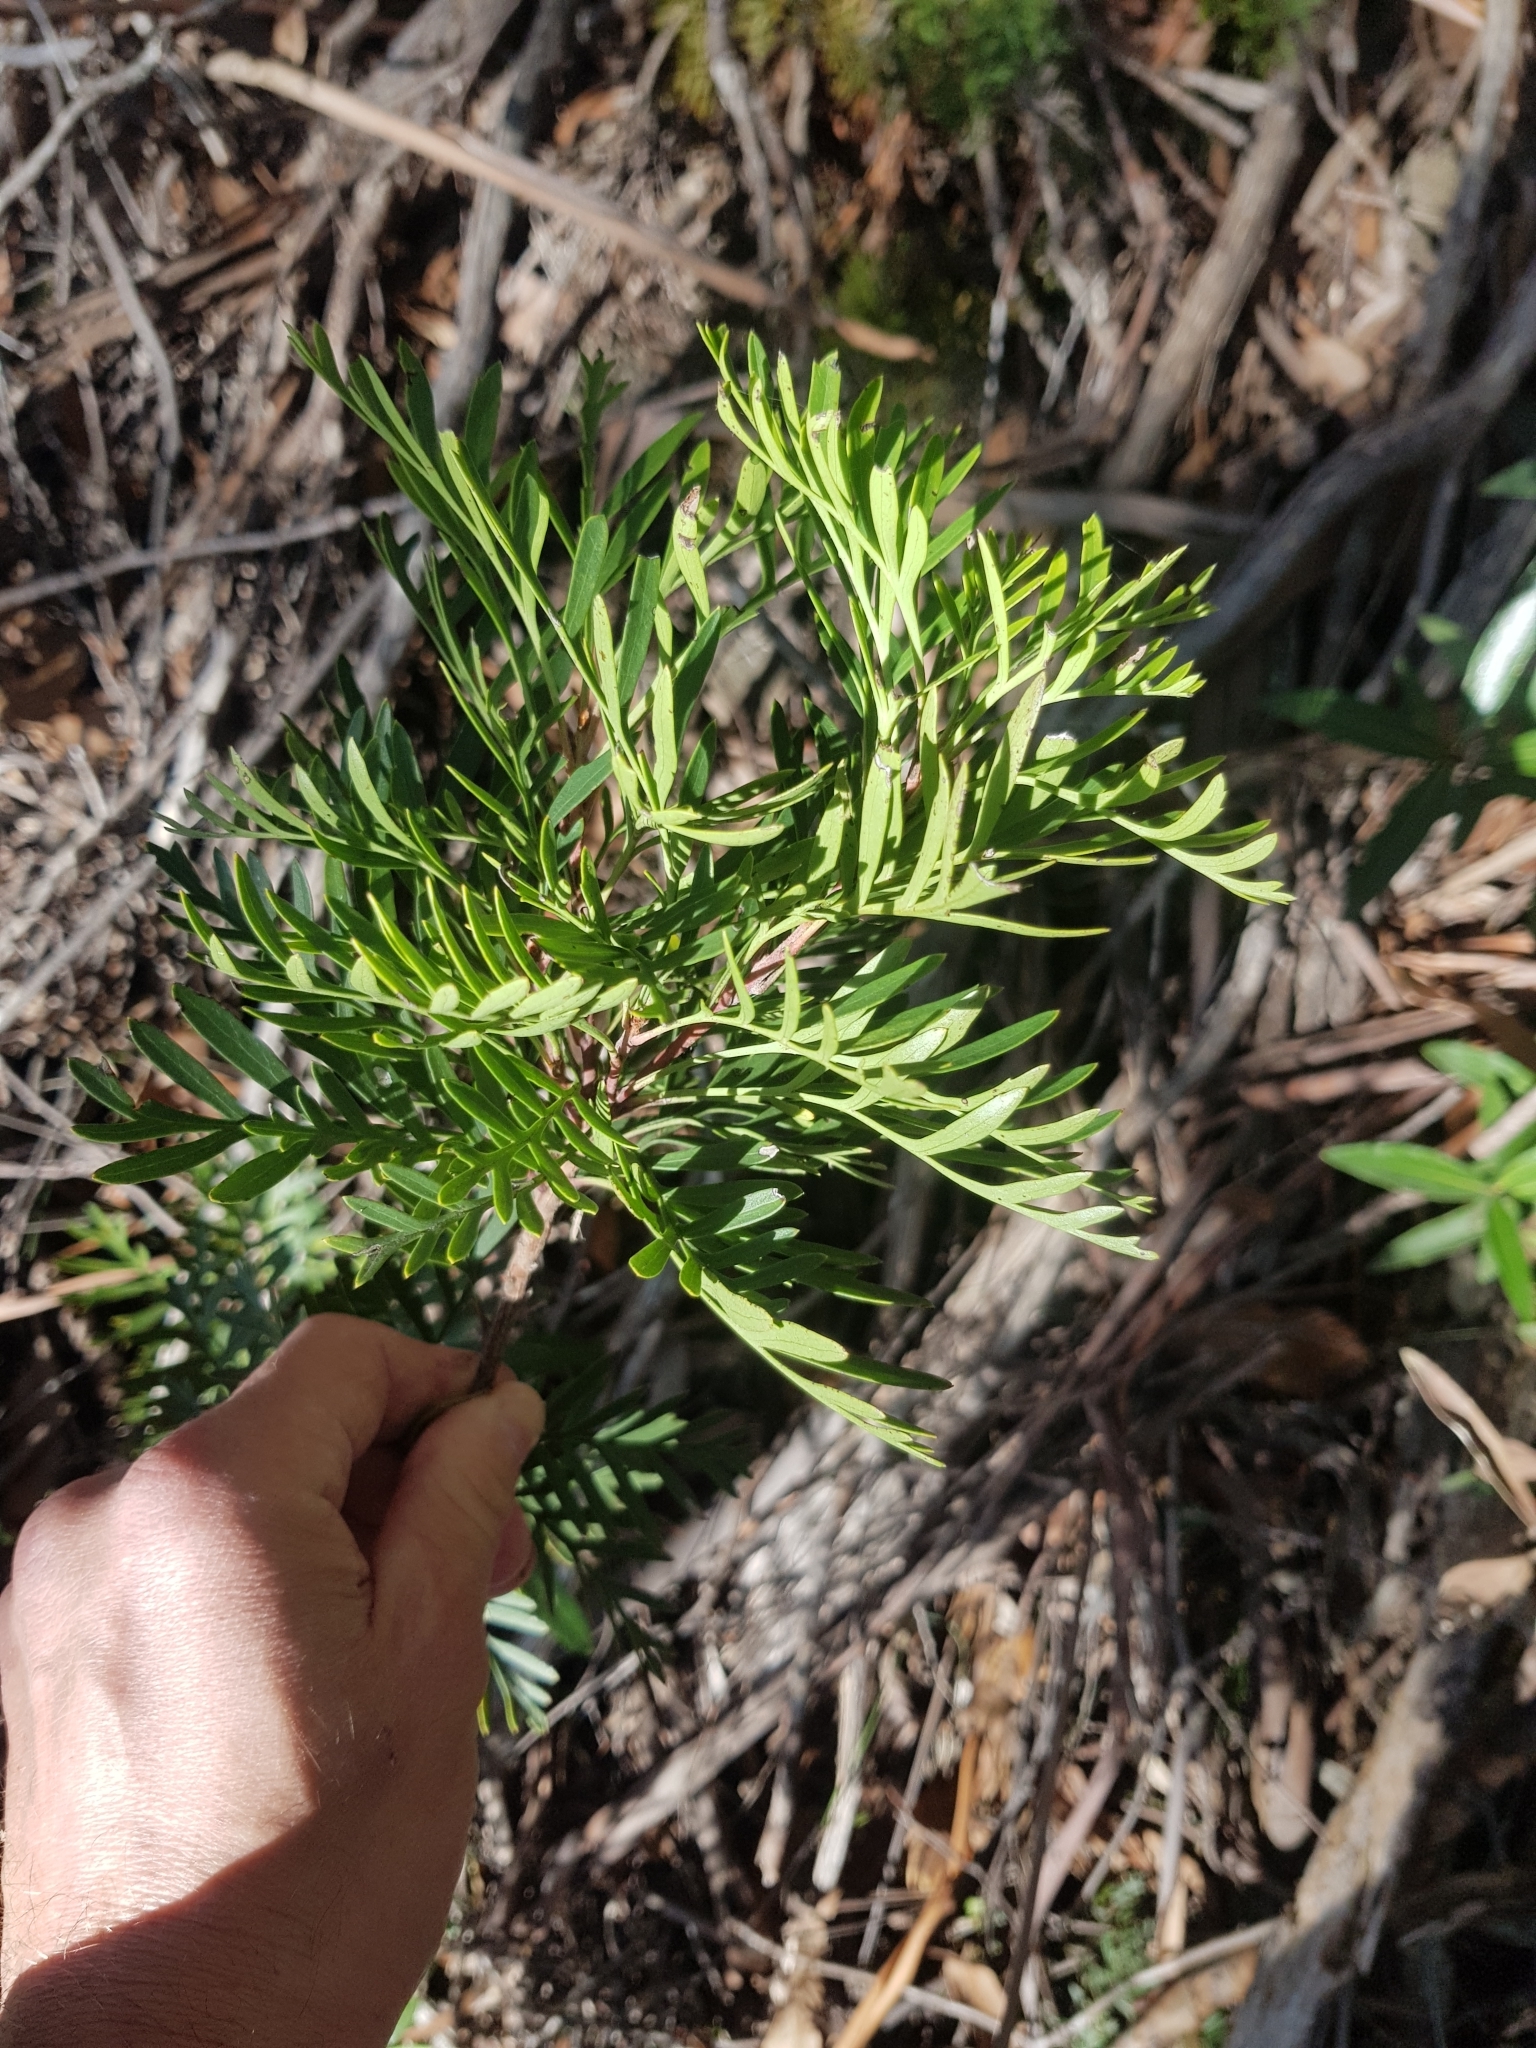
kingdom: Plantae
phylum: Tracheophyta
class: Magnoliopsida
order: Proteales
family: Proteaceae
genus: Lomatia
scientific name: Lomatia tinctoria
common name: Guitar plant
